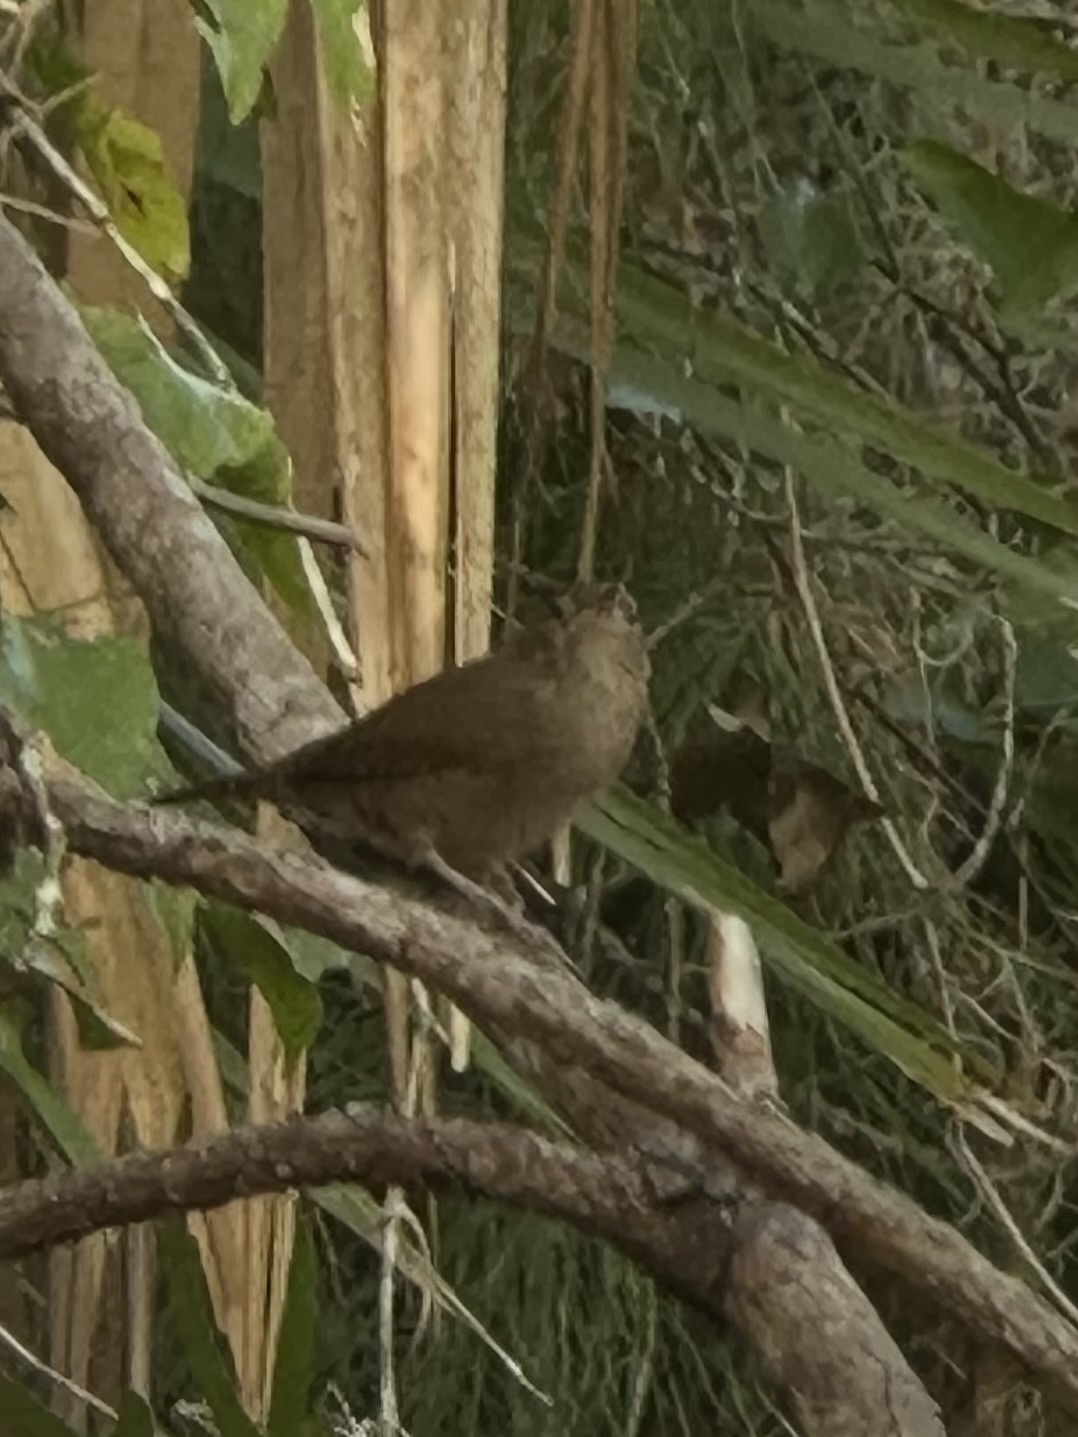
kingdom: Animalia
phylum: Chordata
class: Aves
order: Passeriformes
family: Troglodytidae
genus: Troglodytes
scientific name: Troglodytes aedon
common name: House wren
